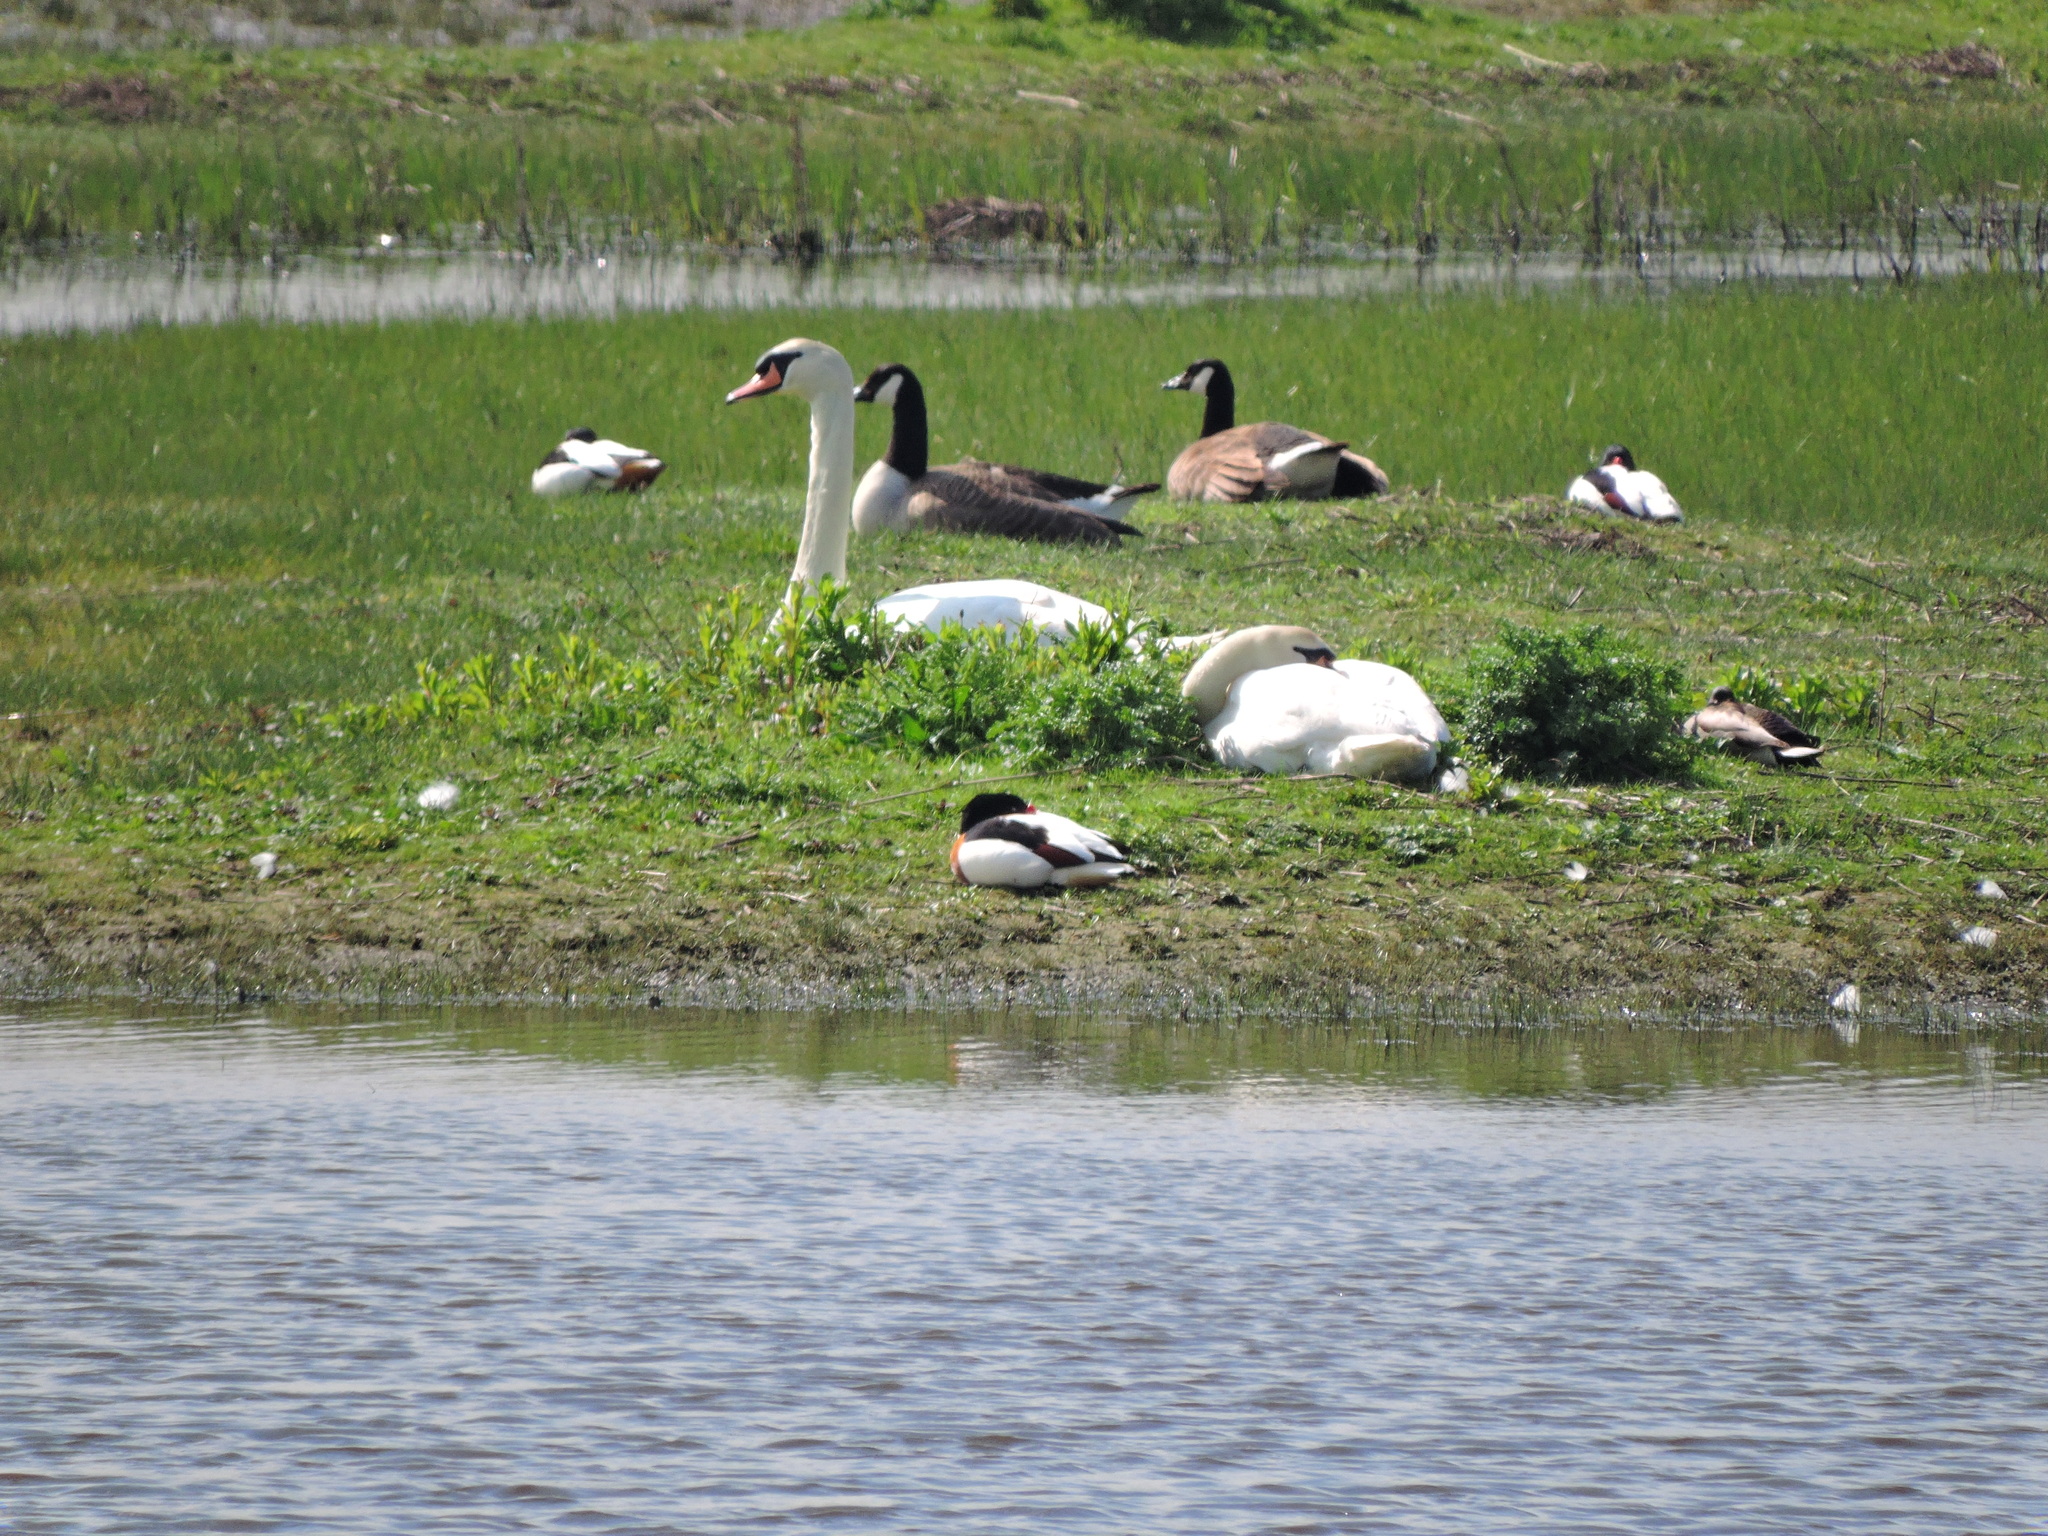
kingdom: Animalia
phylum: Chordata
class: Aves
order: Anseriformes
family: Anatidae
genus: Tadorna
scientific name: Tadorna tadorna
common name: Common shelduck
